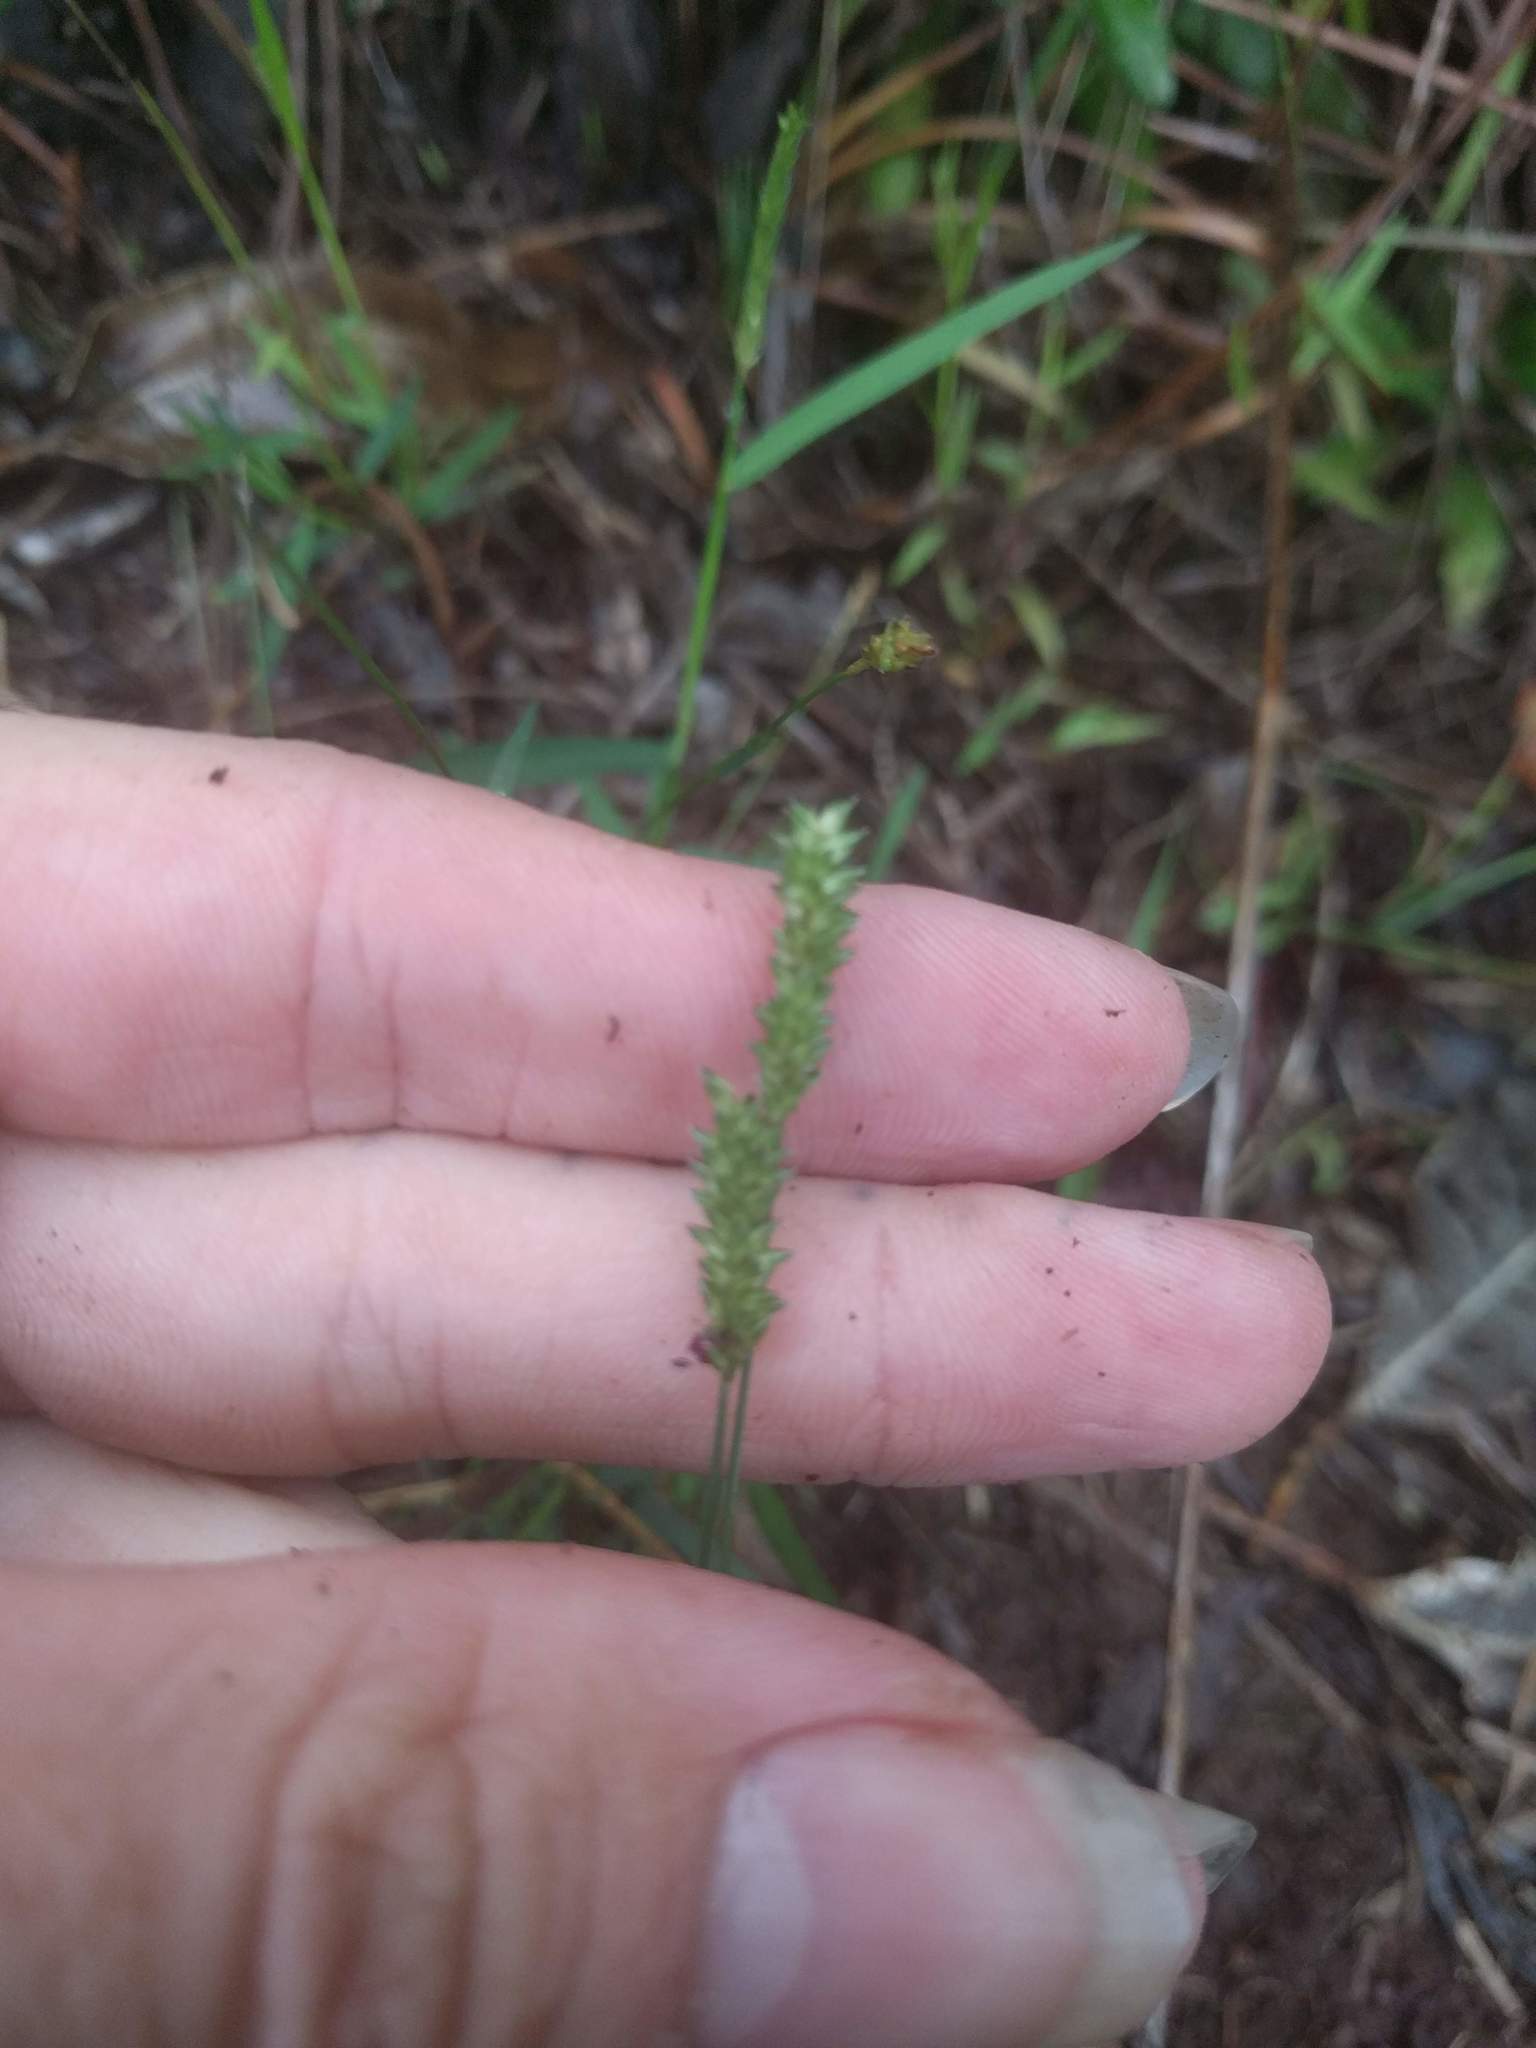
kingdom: Plantae
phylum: Tracheophyta
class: Liliopsida
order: Poales
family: Poaceae
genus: Sacciolepis
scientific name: Sacciolepis indica
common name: Glenwoodgrass
